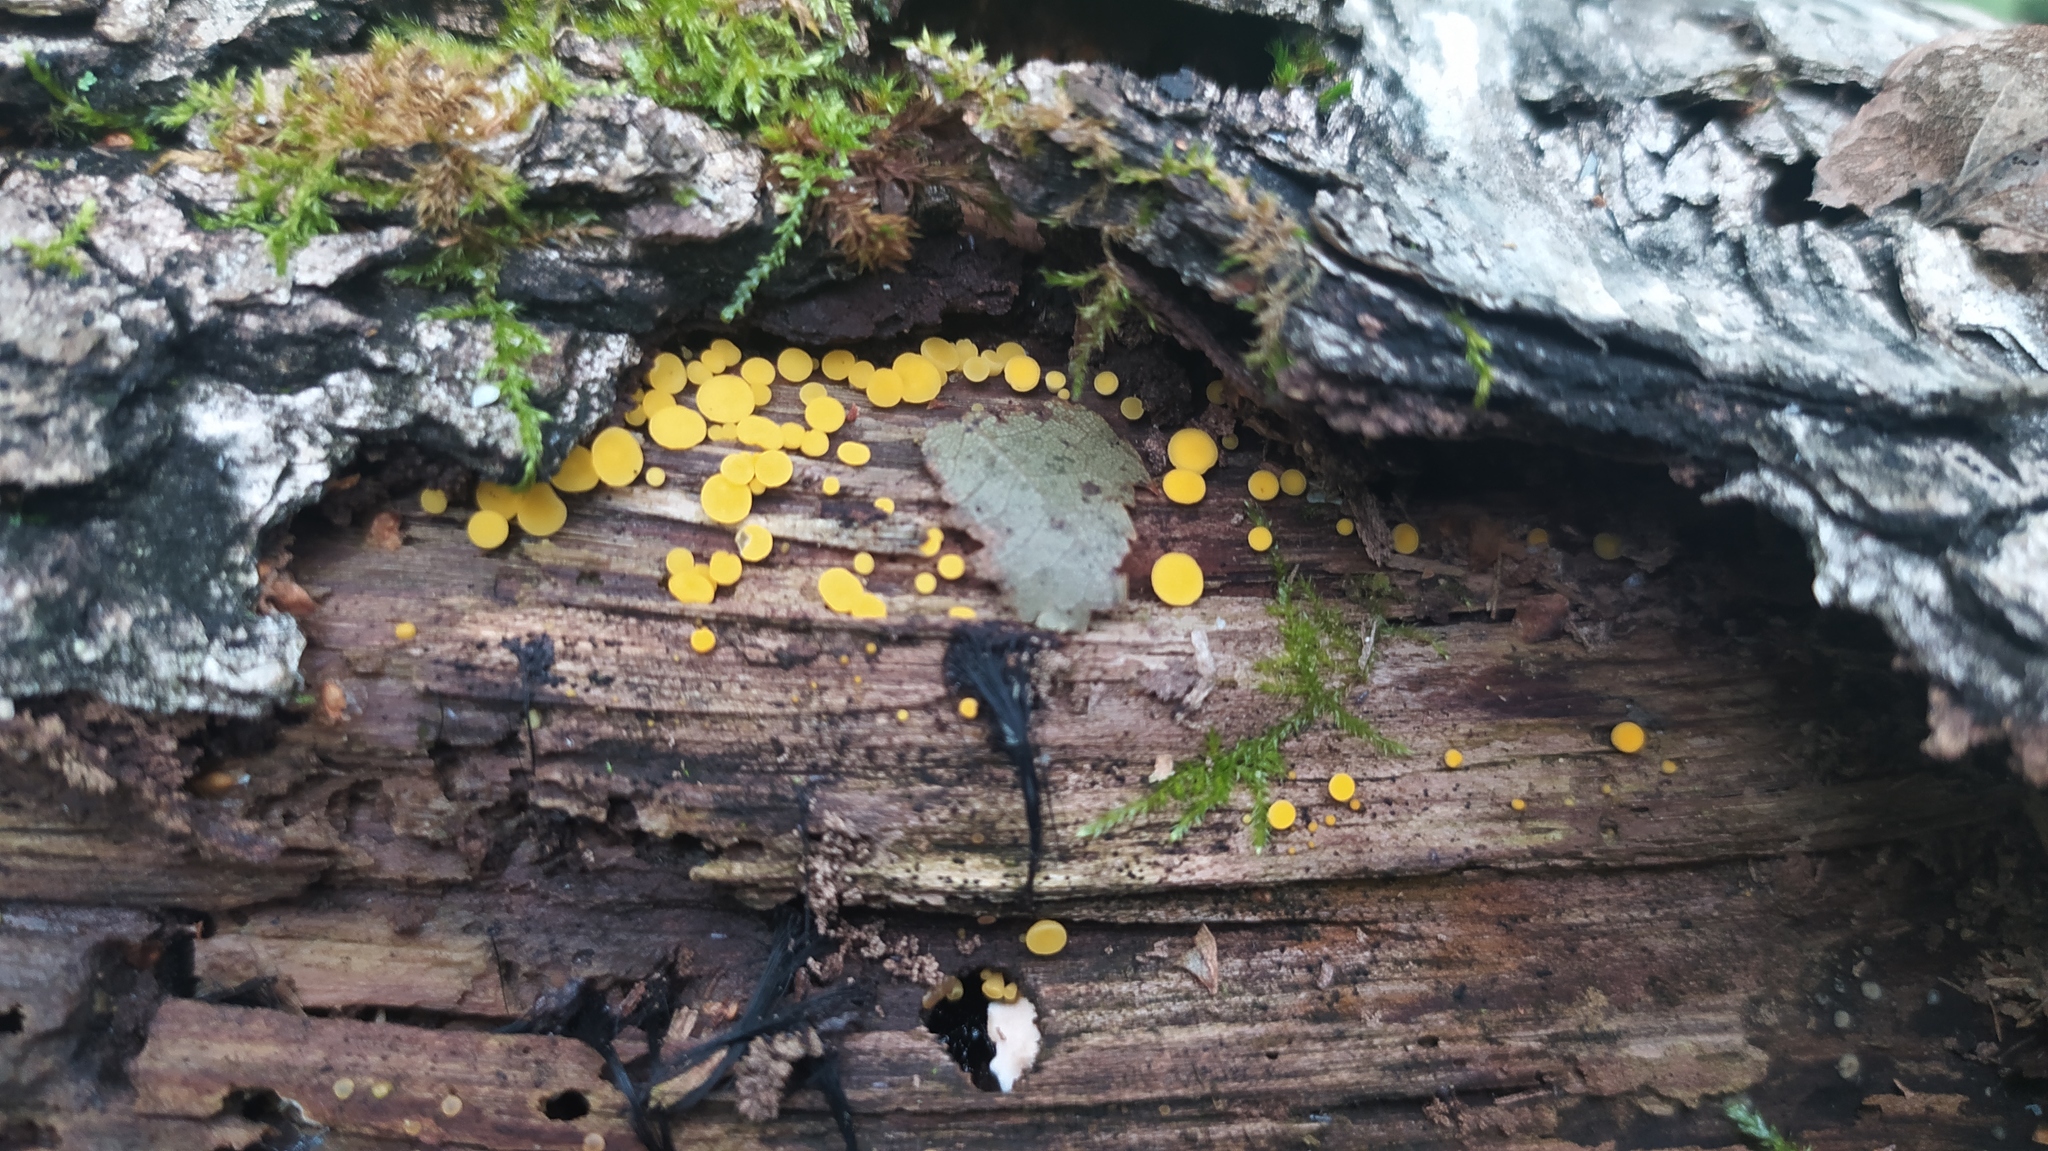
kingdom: Fungi
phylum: Ascomycota
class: Leotiomycetes
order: Helotiales
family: Pezizellaceae
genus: Calycina
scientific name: Calycina citrina
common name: Yellow fairy cups
